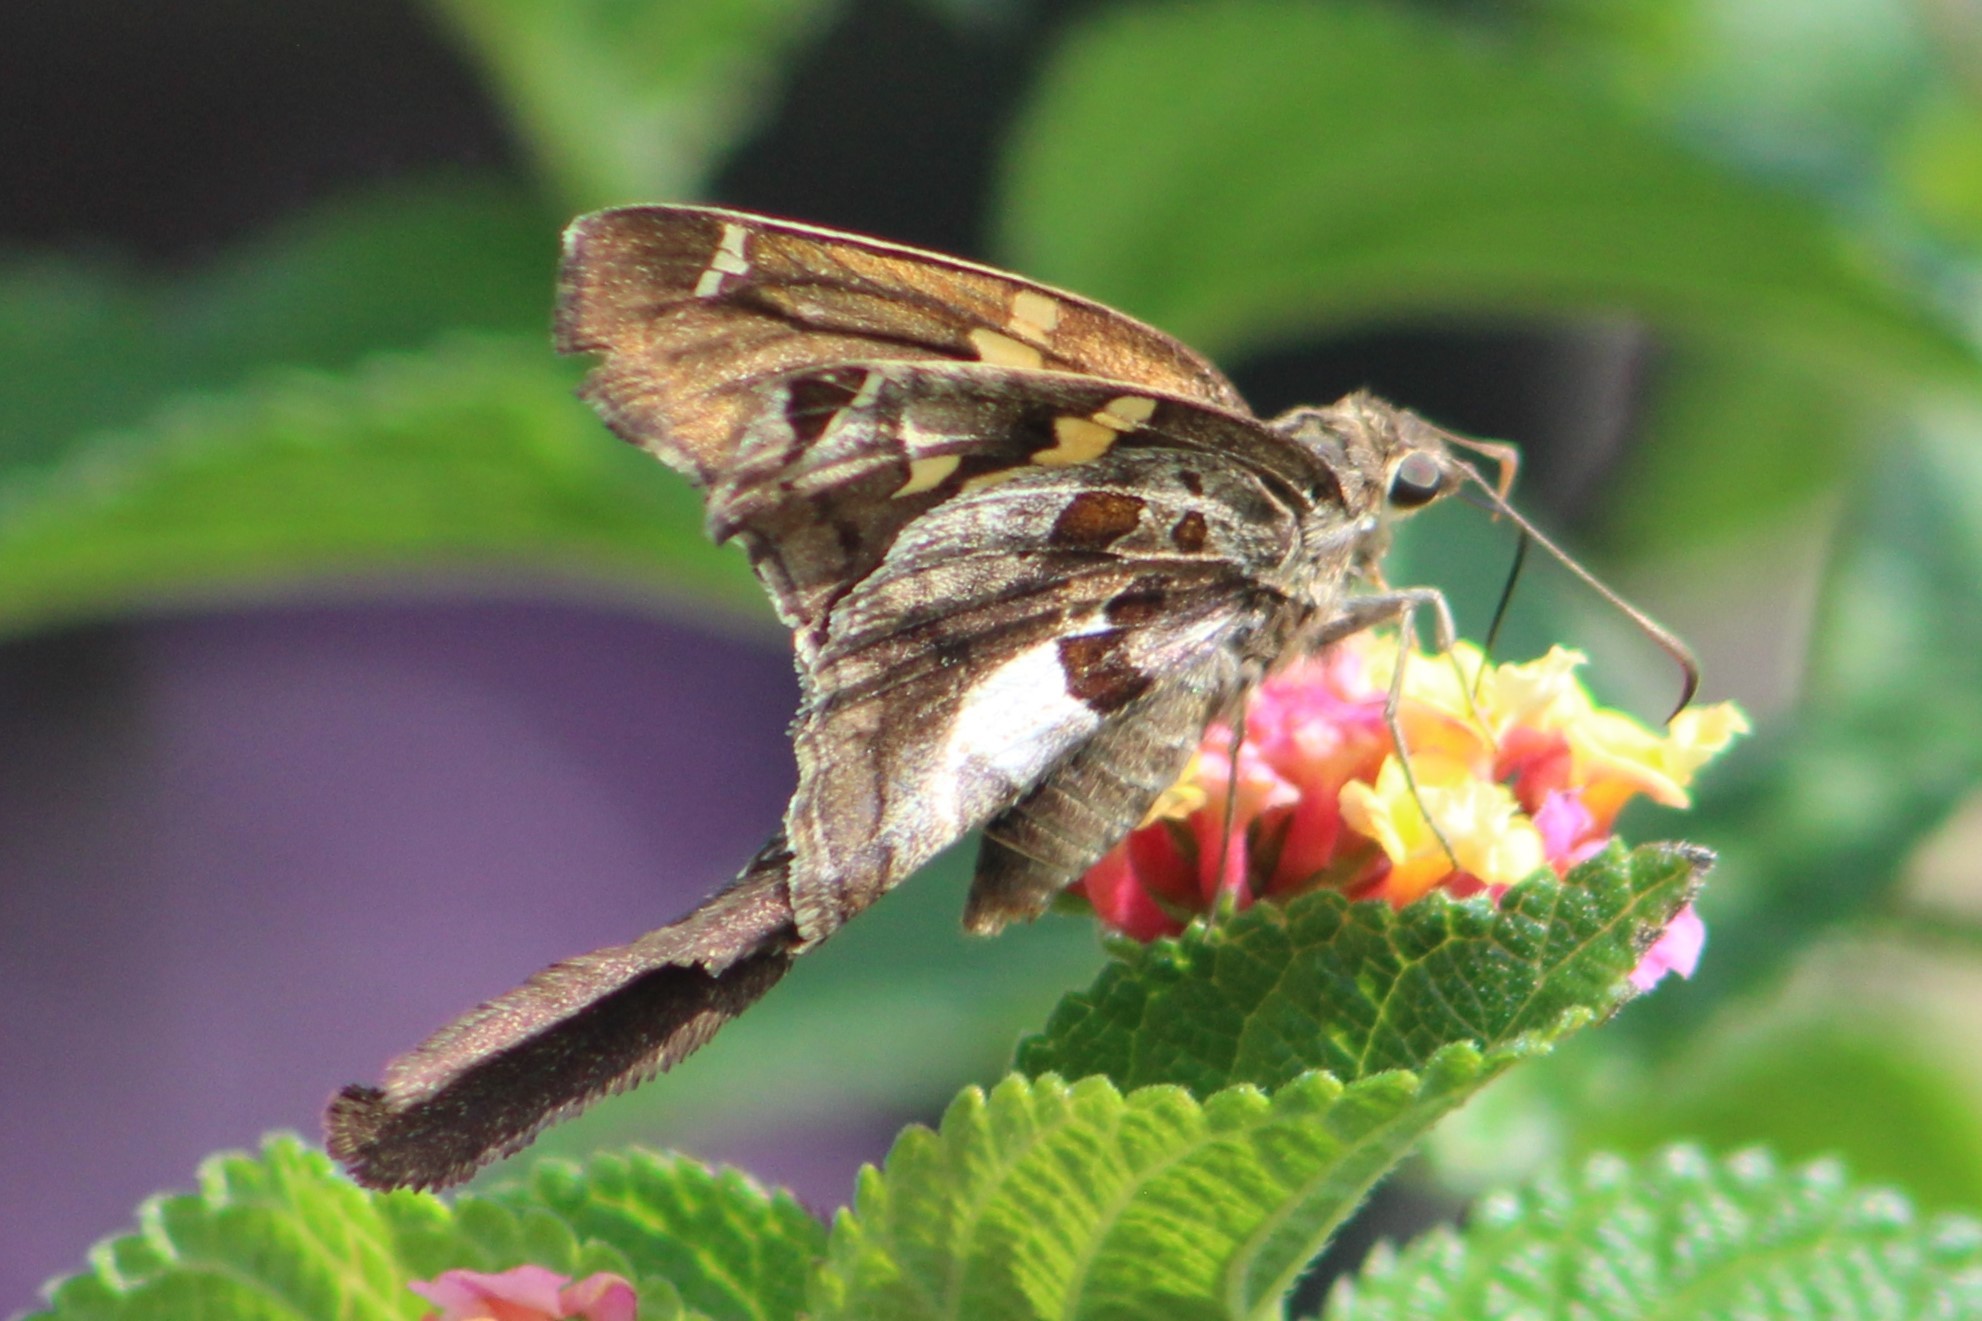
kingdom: Animalia
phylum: Arthropoda
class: Insecta
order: Lepidoptera
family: Hesperiidae
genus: Chioides
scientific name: Chioides zilpa
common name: Zilpa longtail
